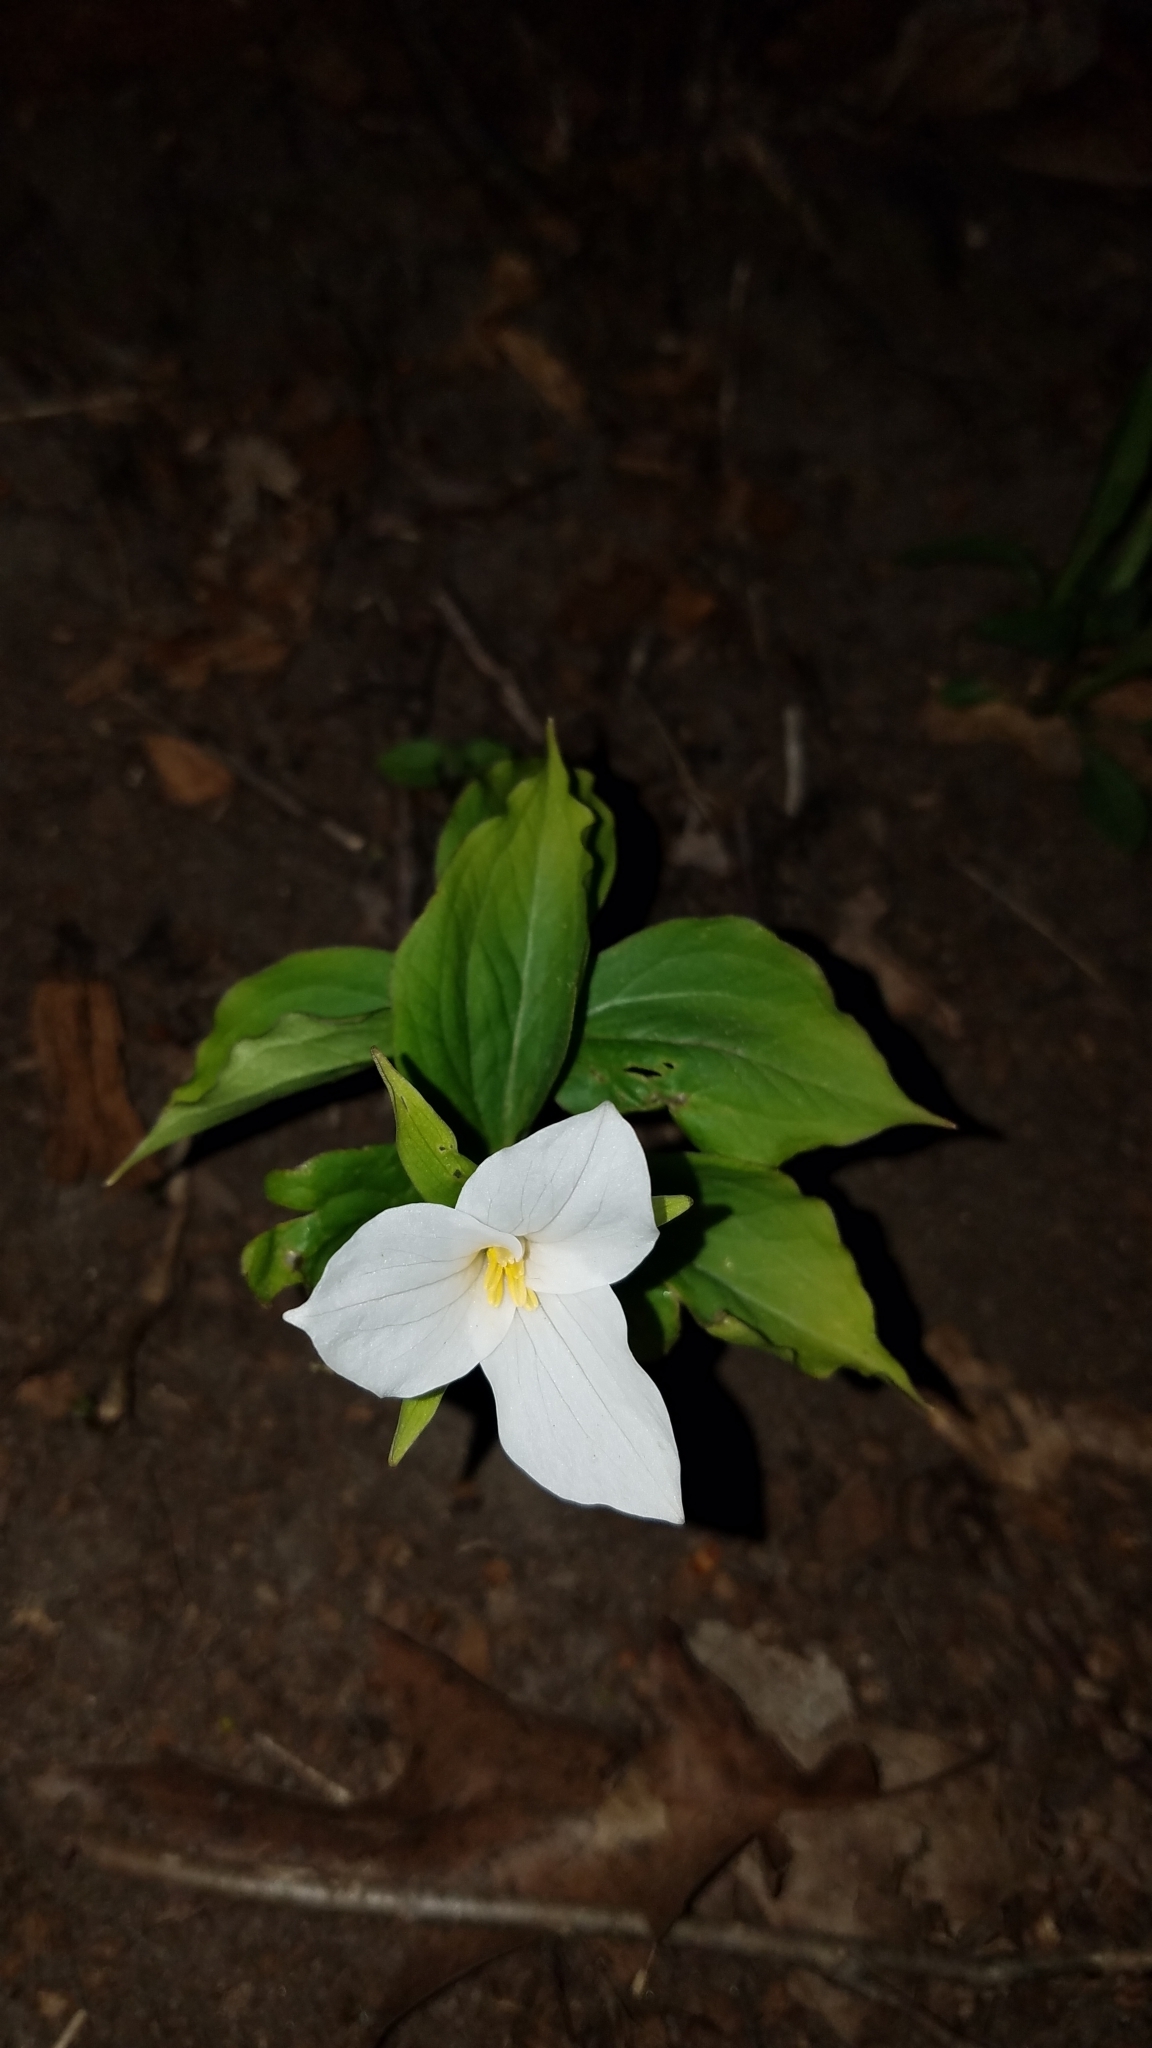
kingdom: Plantae
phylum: Tracheophyta
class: Liliopsida
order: Liliales
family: Melanthiaceae
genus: Trillium
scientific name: Trillium grandiflorum
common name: Great white trillium
